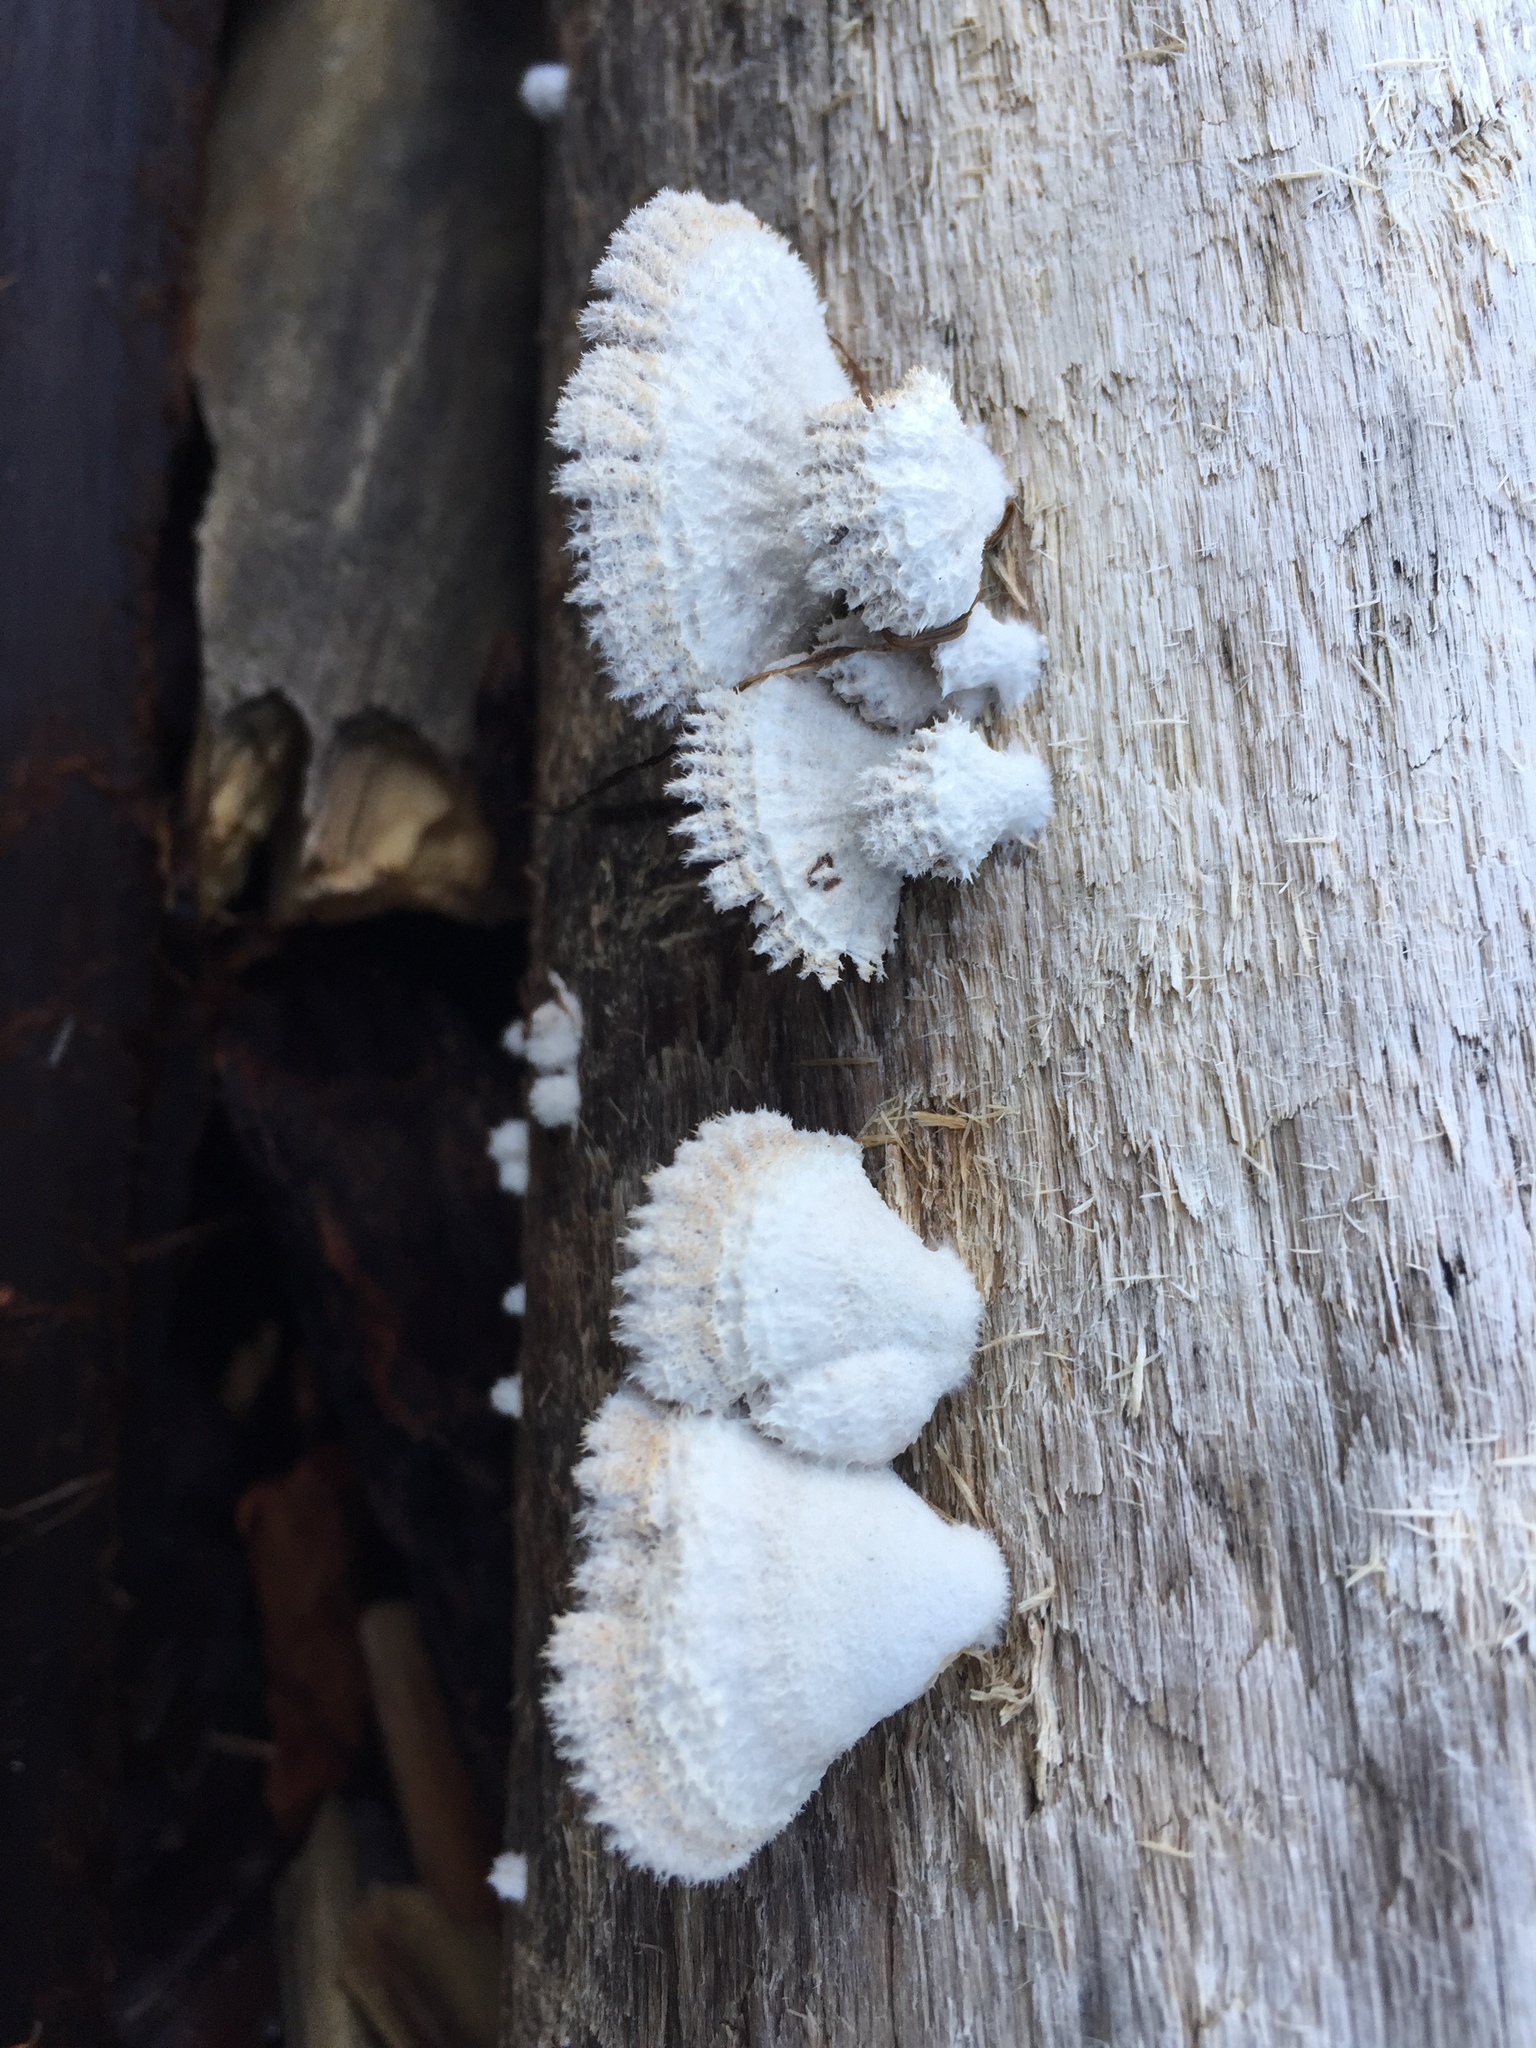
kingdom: Fungi
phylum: Basidiomycota
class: Agaricomycetes
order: Agaricales
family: Schizophyllaceae
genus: Schizophyllum
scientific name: Schizophyllum commune
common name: Common porecrust
